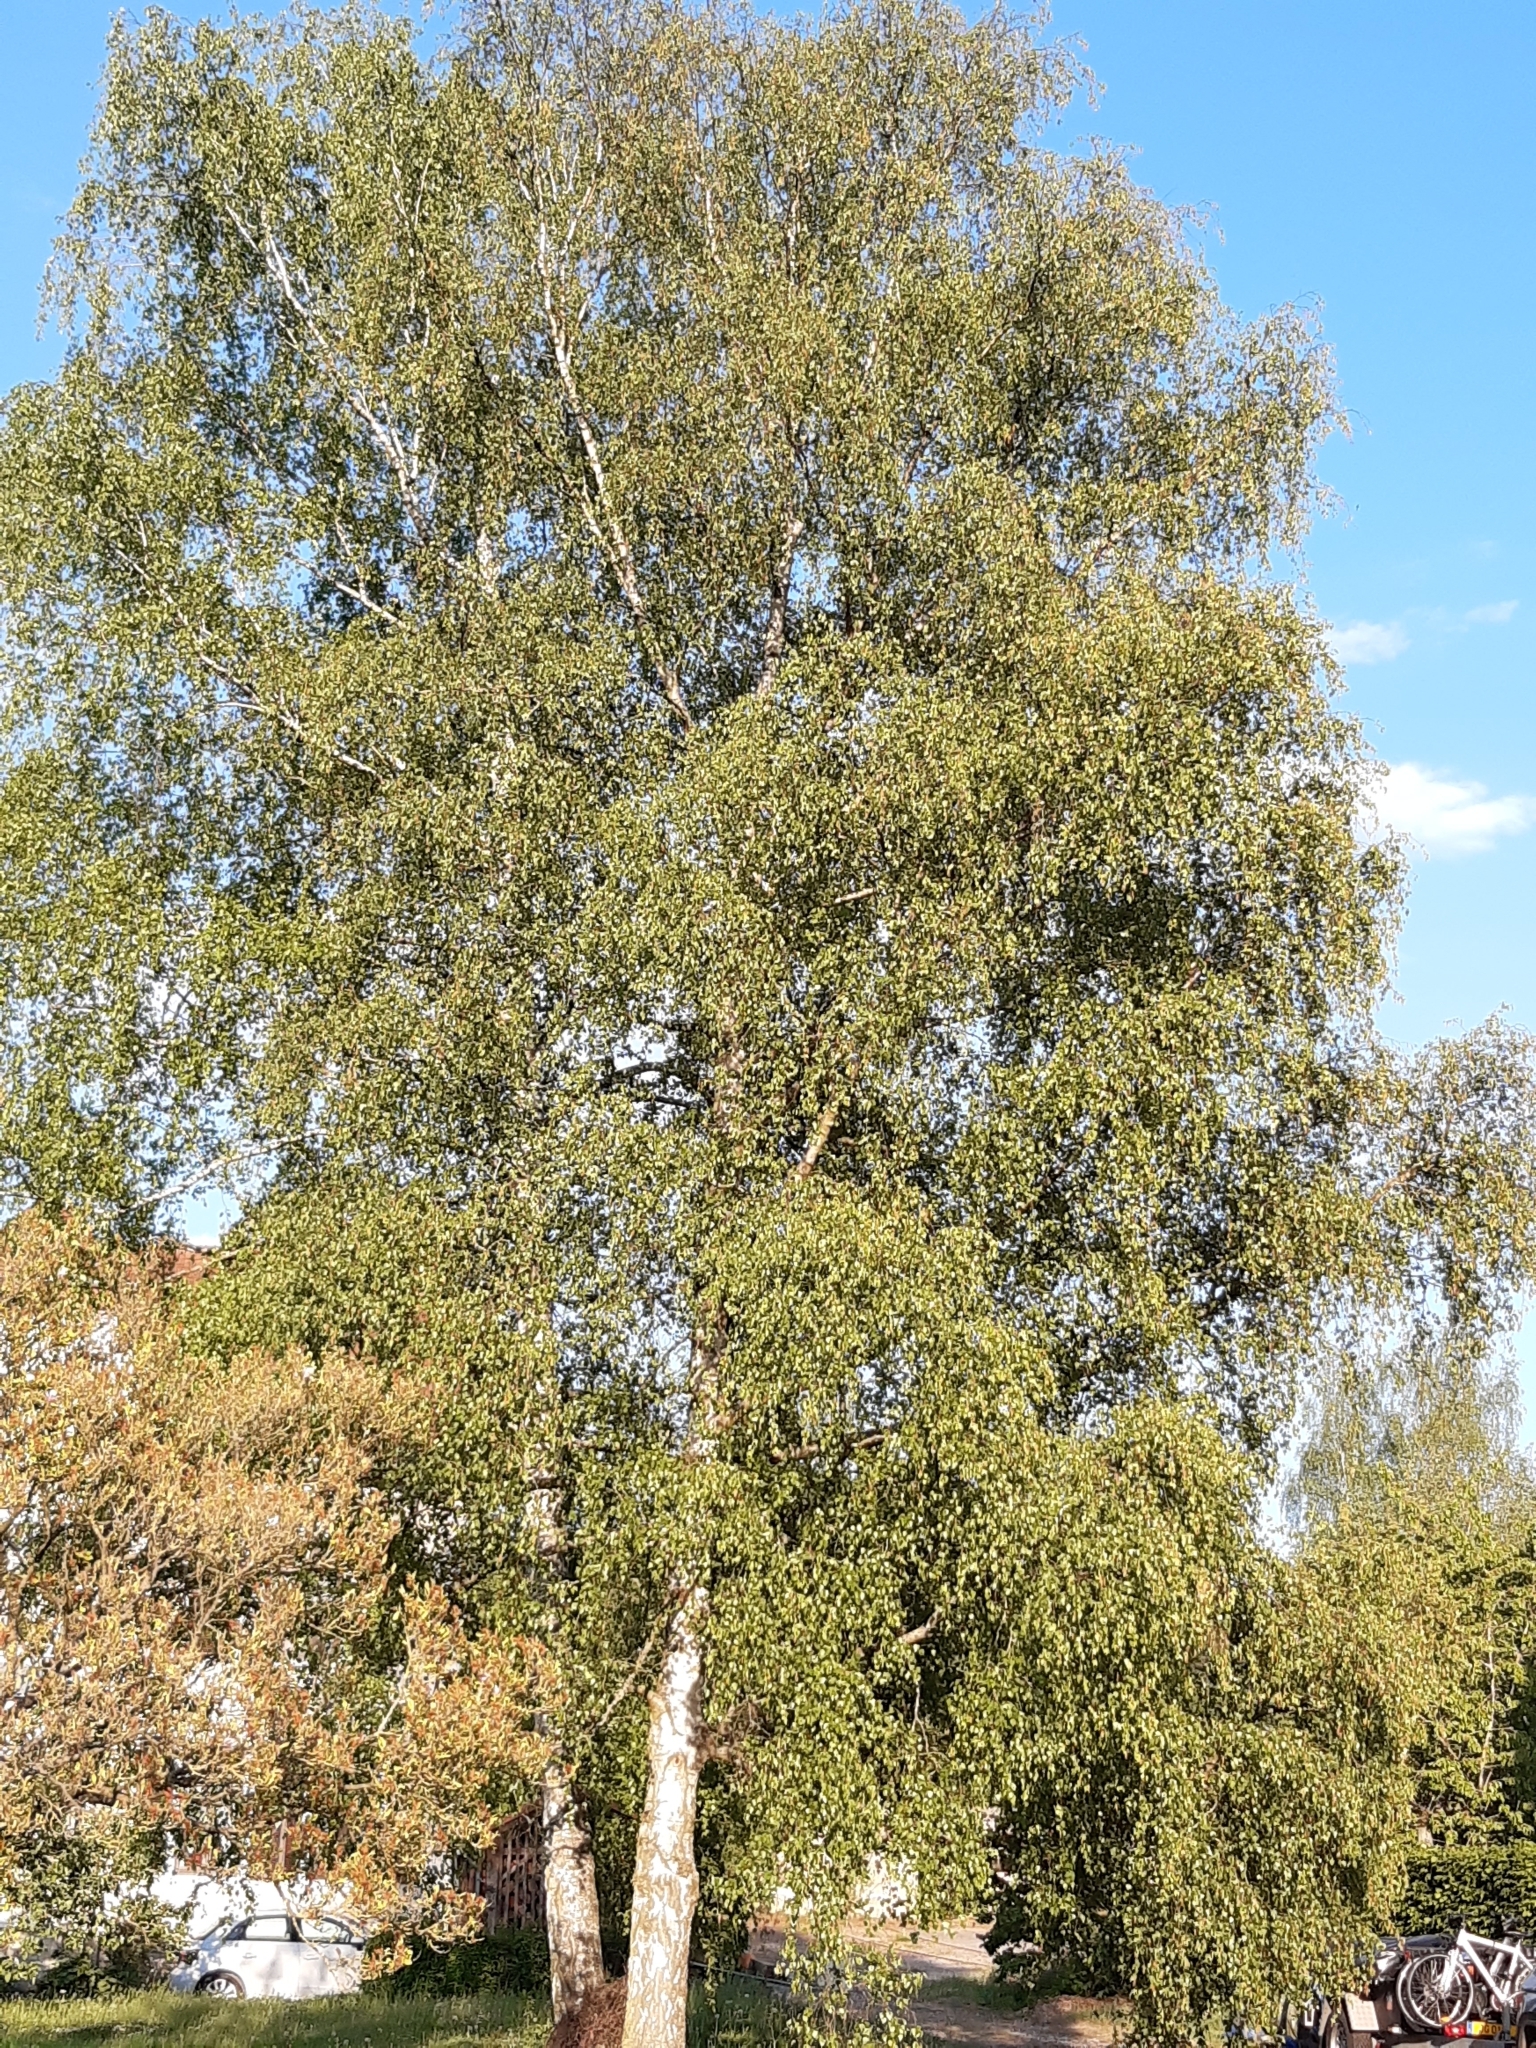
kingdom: Plantae
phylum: Tracheophyta
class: Magnoliopsida
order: Fagales
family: Betulaceae
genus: Betula
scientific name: Betula pendula
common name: Silver birch
